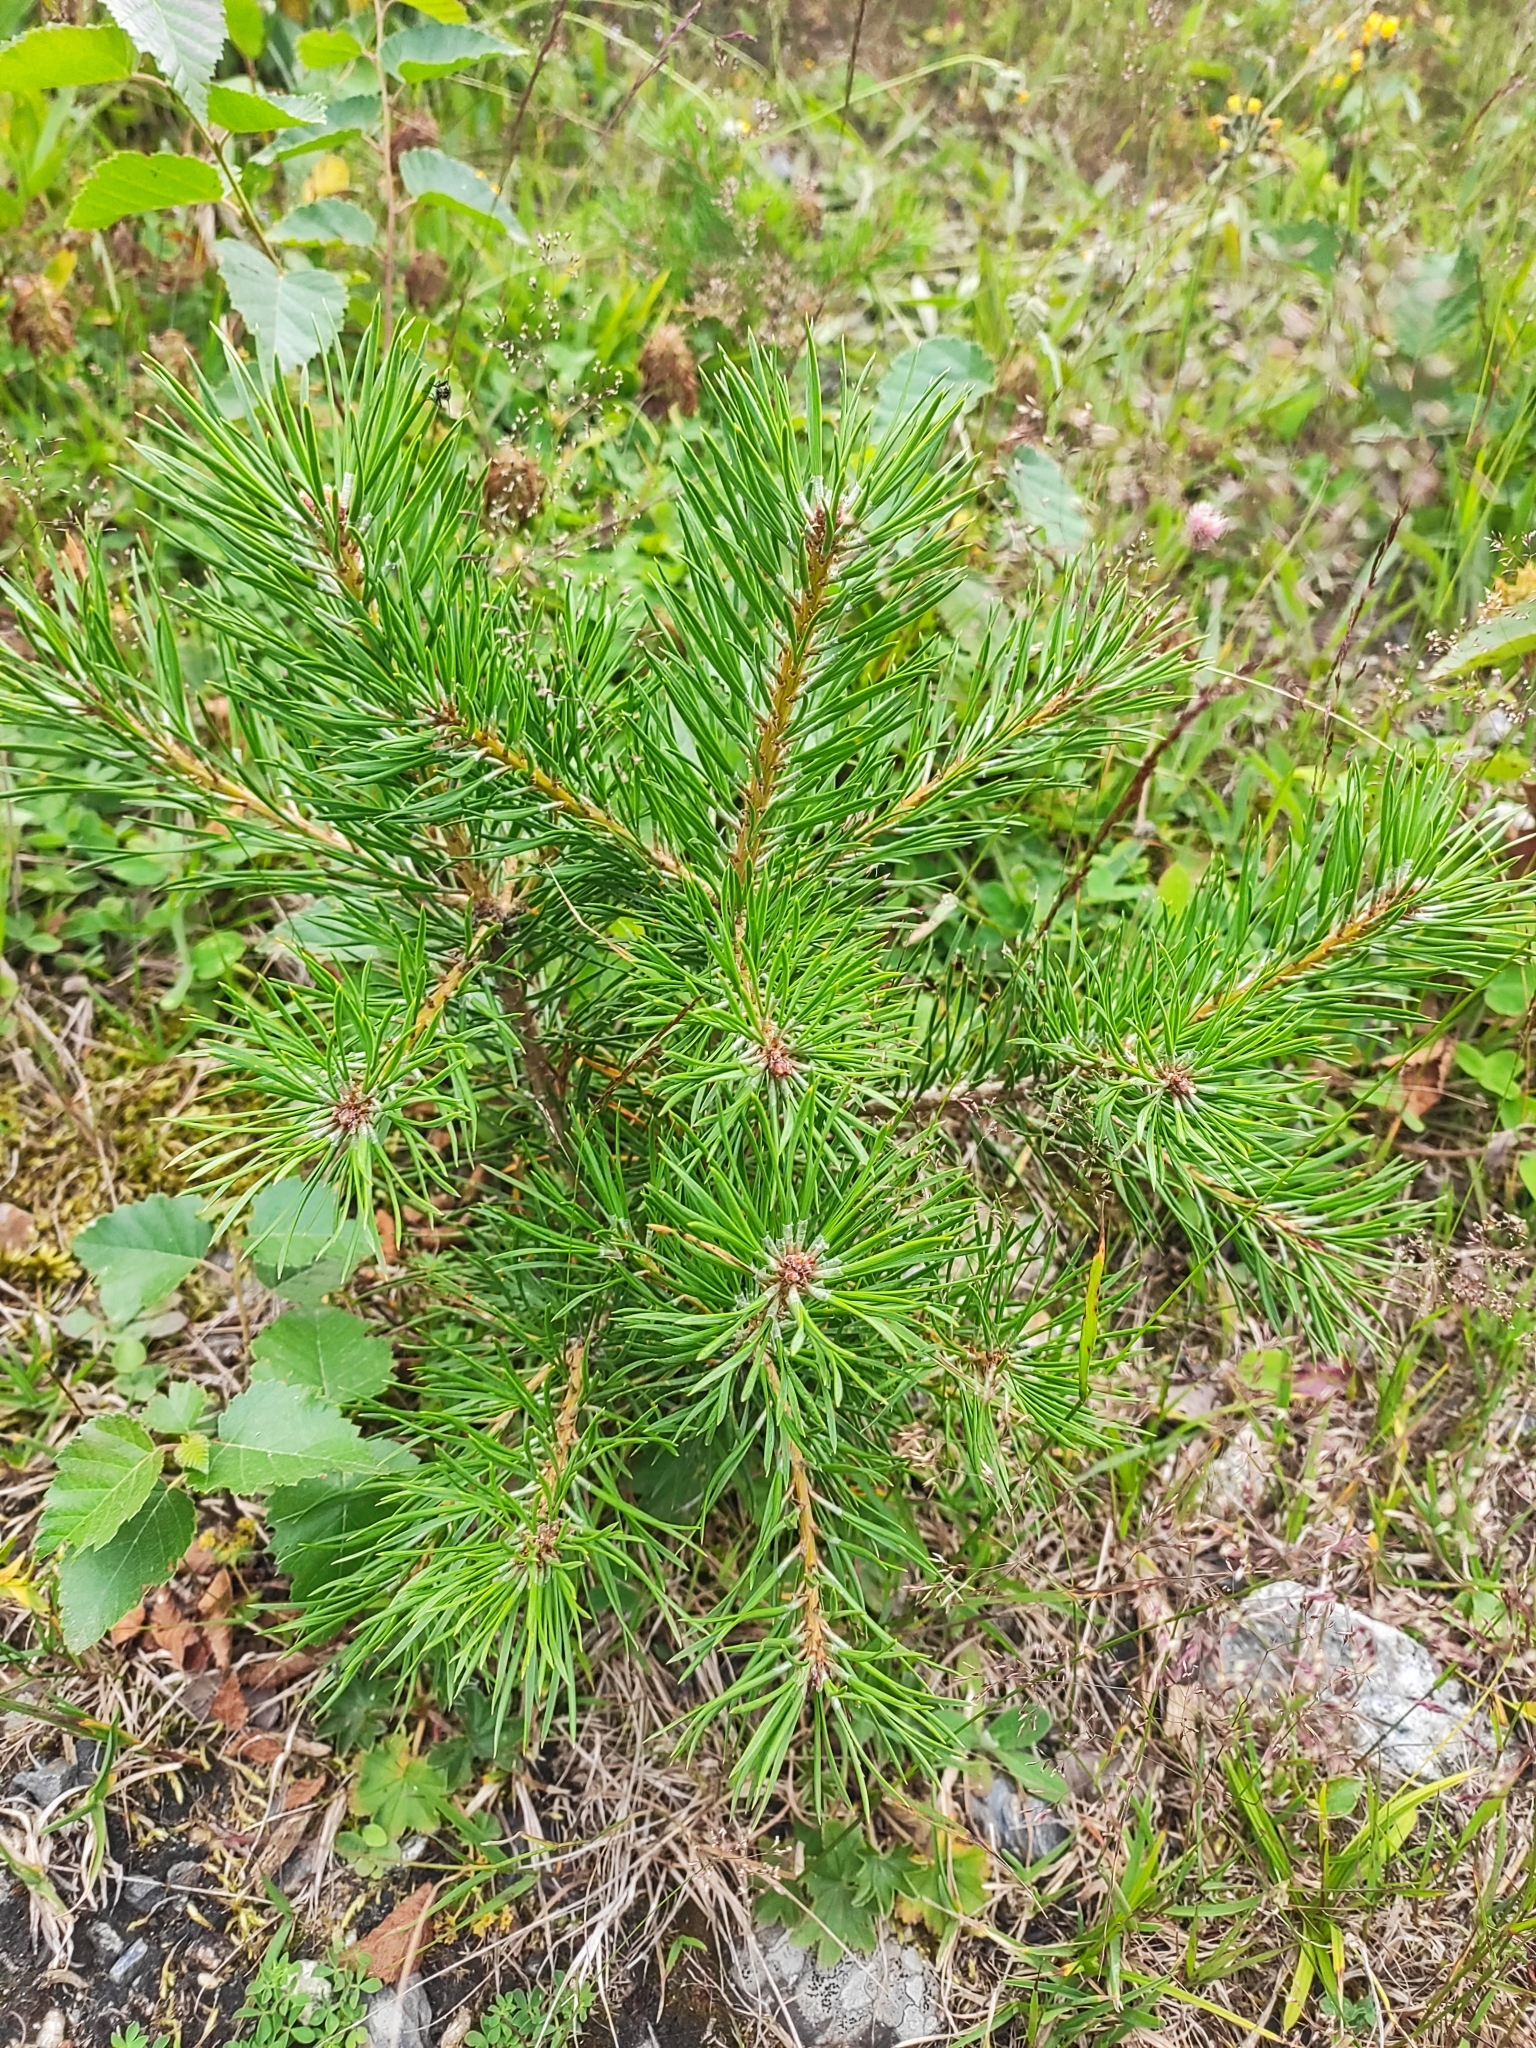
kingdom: Plantae
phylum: Tracheophyta
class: Pinopsida
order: Pinales
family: Pinaceae
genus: Pinus
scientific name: Pinus sylvestris
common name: Scots pine
